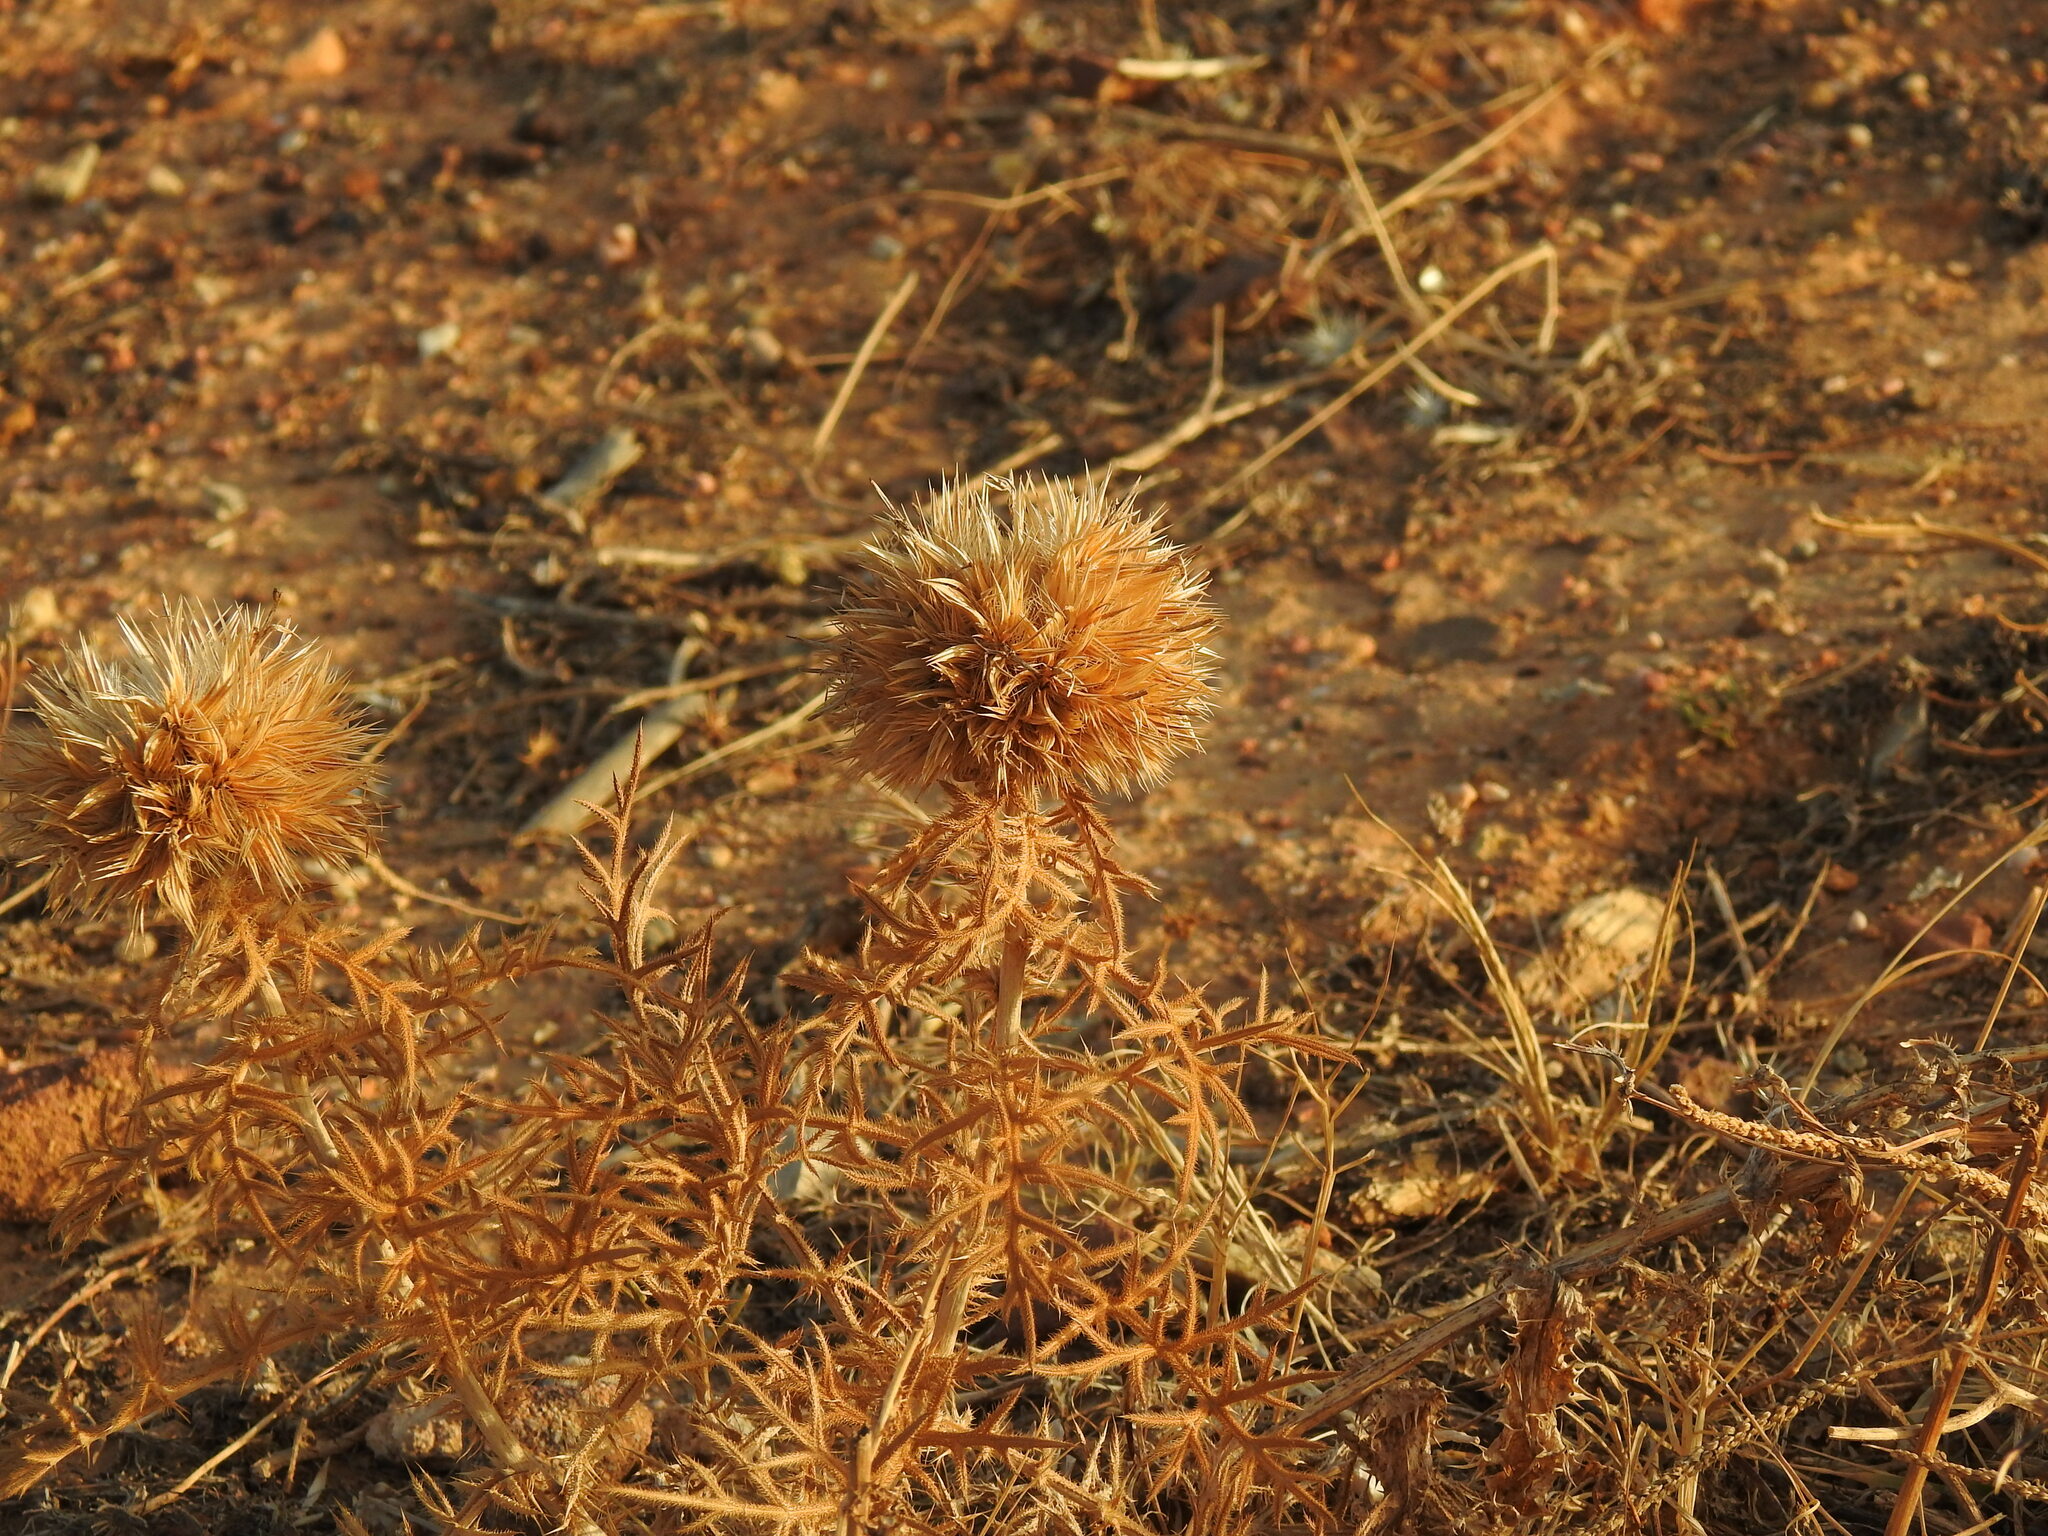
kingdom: Plantae
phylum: Tracheophyta
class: Magnoliopsida
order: Asterales
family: Asteraceae
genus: Echinops
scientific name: Echinops strigosus
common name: Rough-leaf globe thistle
